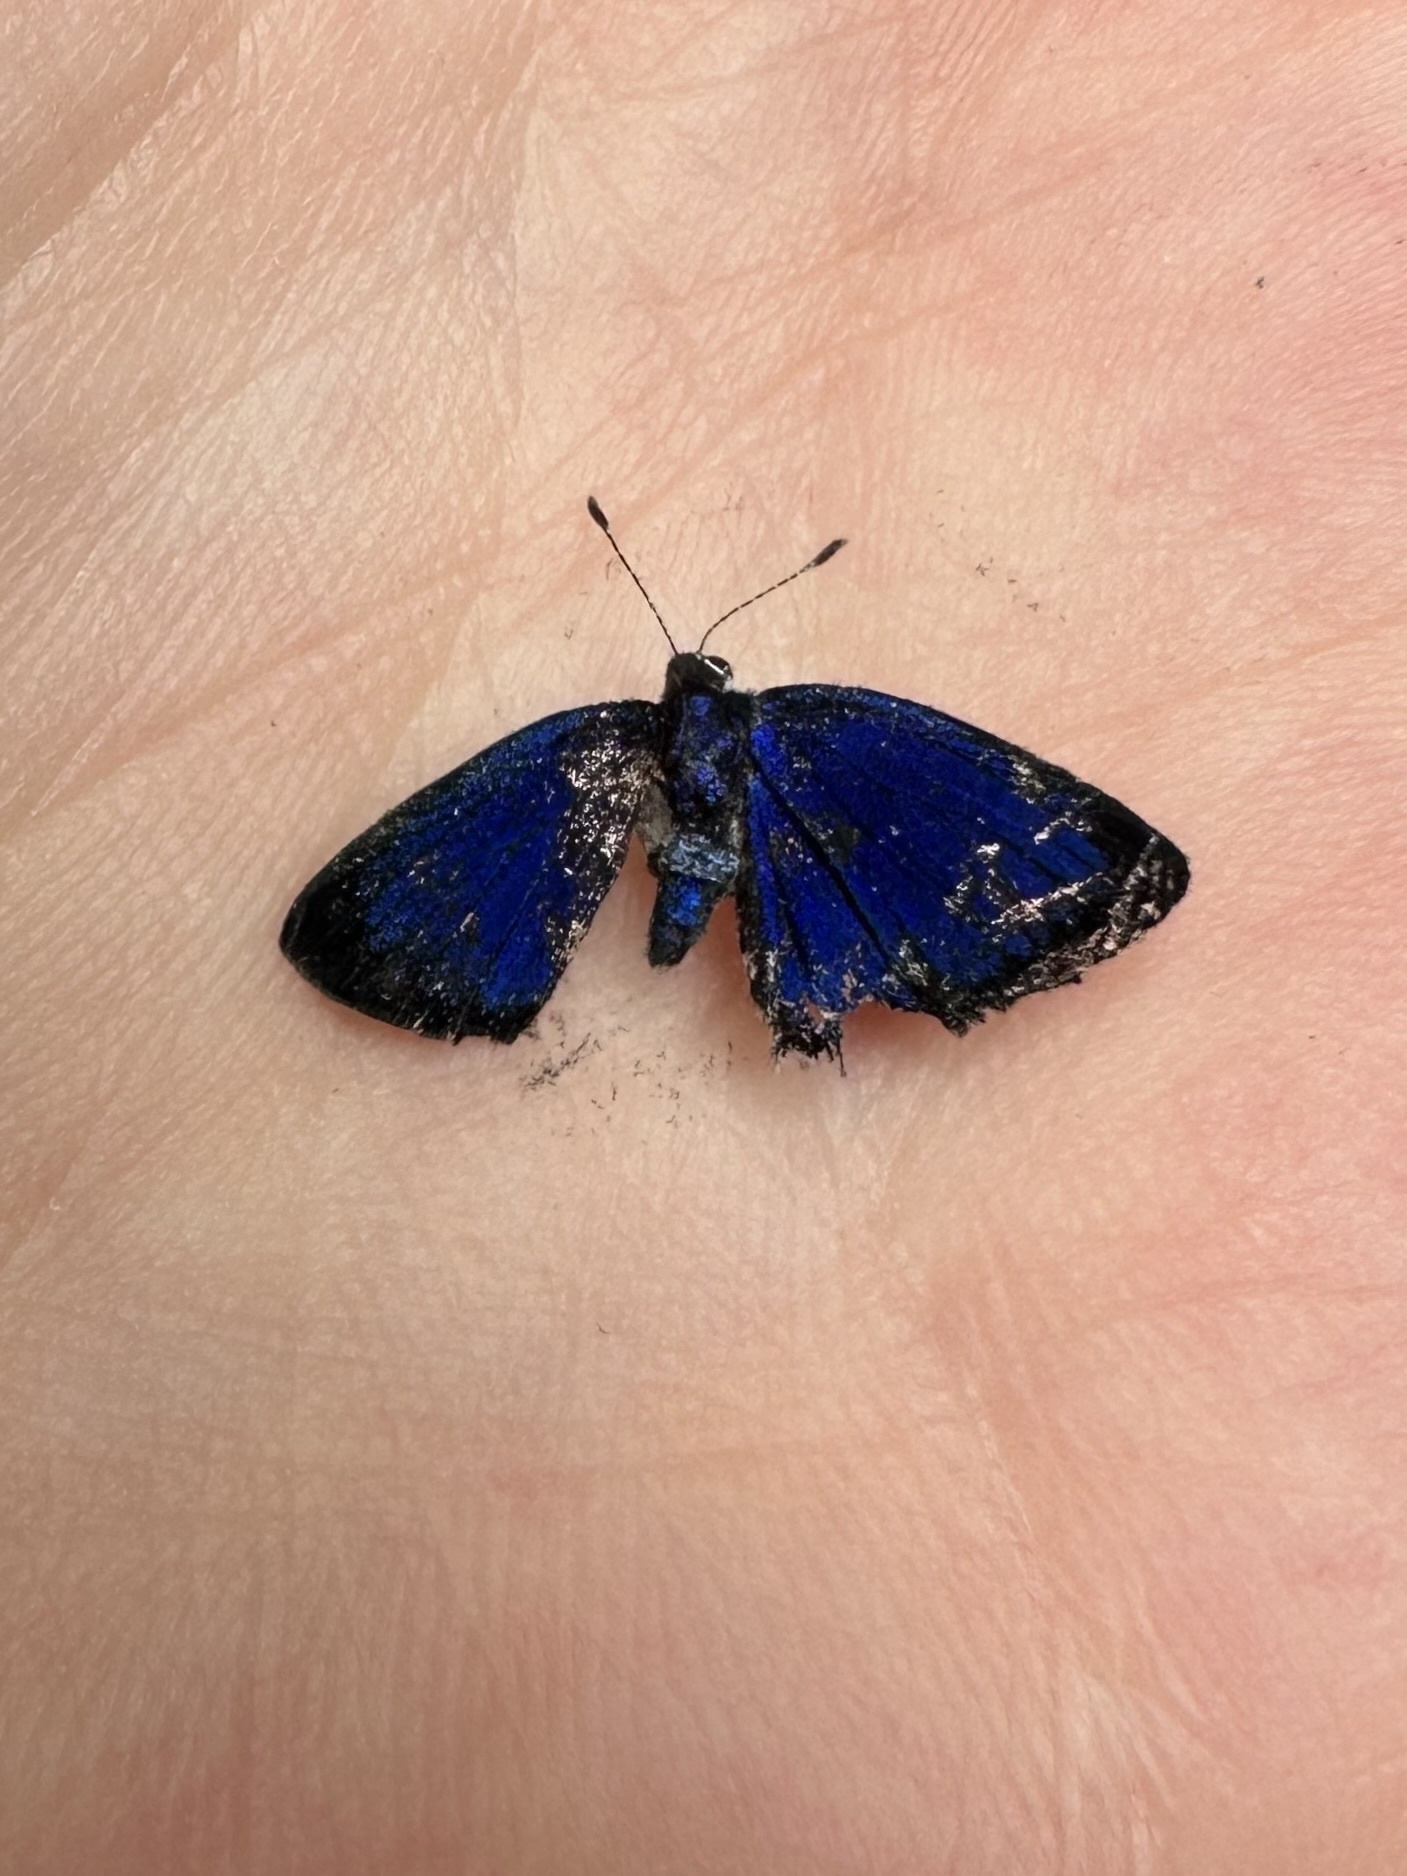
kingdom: Animalia
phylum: Arthropoda
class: Insecta
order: Lepidoptera
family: Lycaenidae
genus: Thecla
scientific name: Thecla carnica
